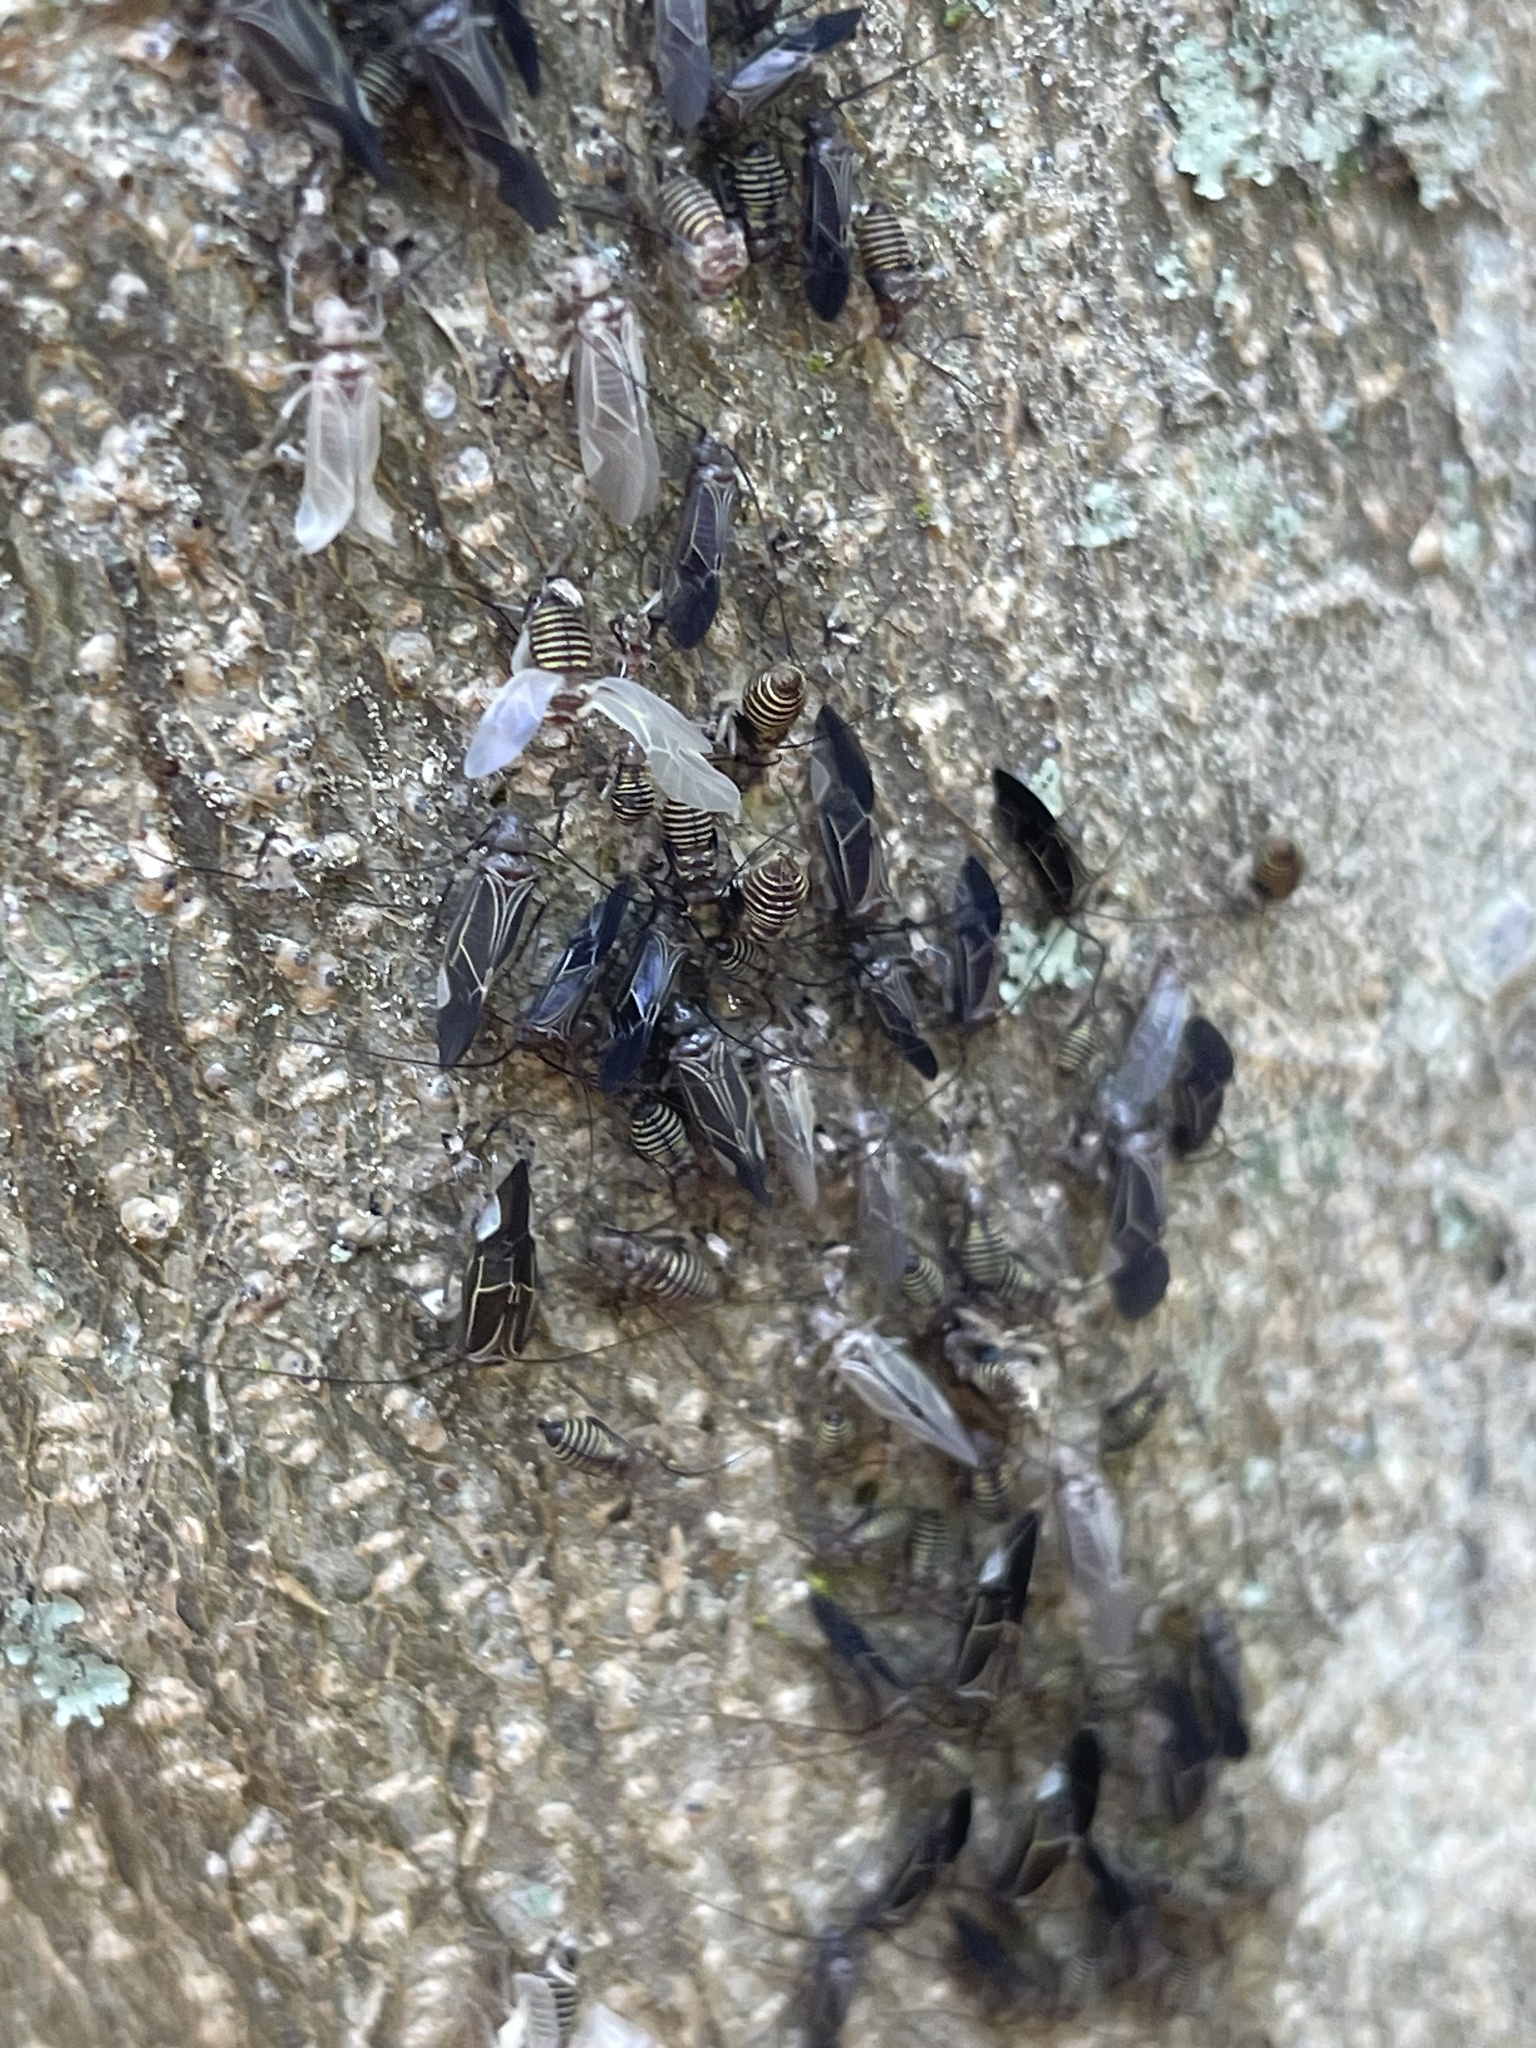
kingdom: Animalia
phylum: Arthropoda
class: Insecta
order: Psocodea
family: Psocidae
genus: Cerastipsocus
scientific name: Cerastipsocus venosus
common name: Tree cattle
